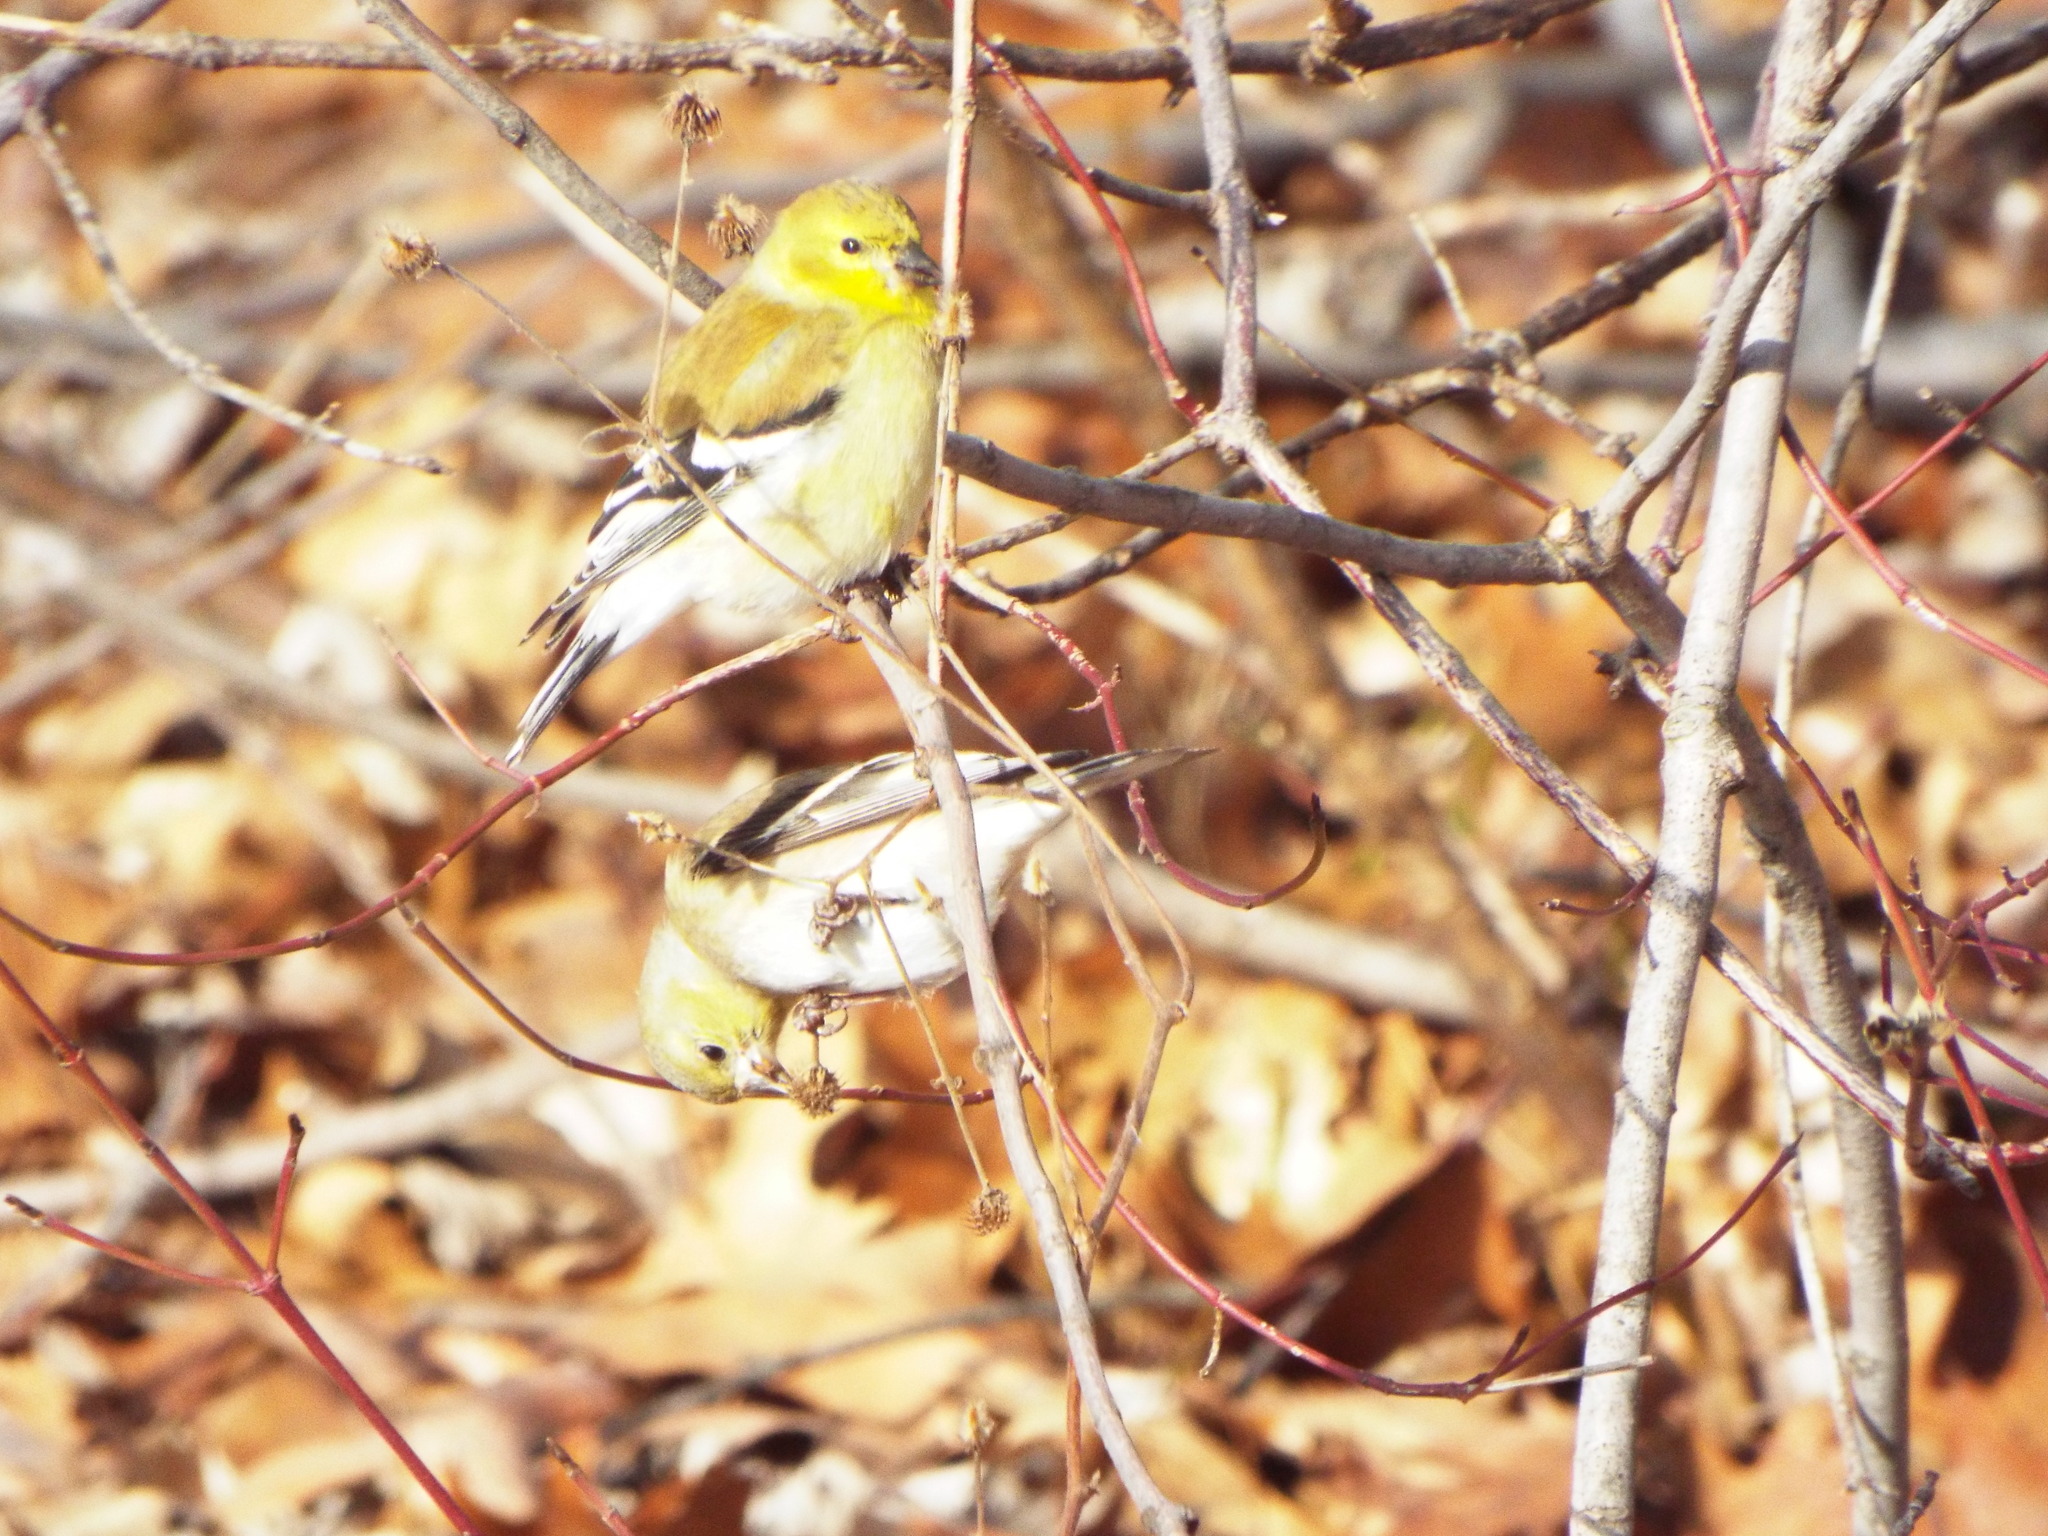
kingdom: Animalia
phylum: Chordata
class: Aves
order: Passeriformes
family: Fringillidae
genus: Spinus
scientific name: Spinus tristis
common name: American goldfinch
